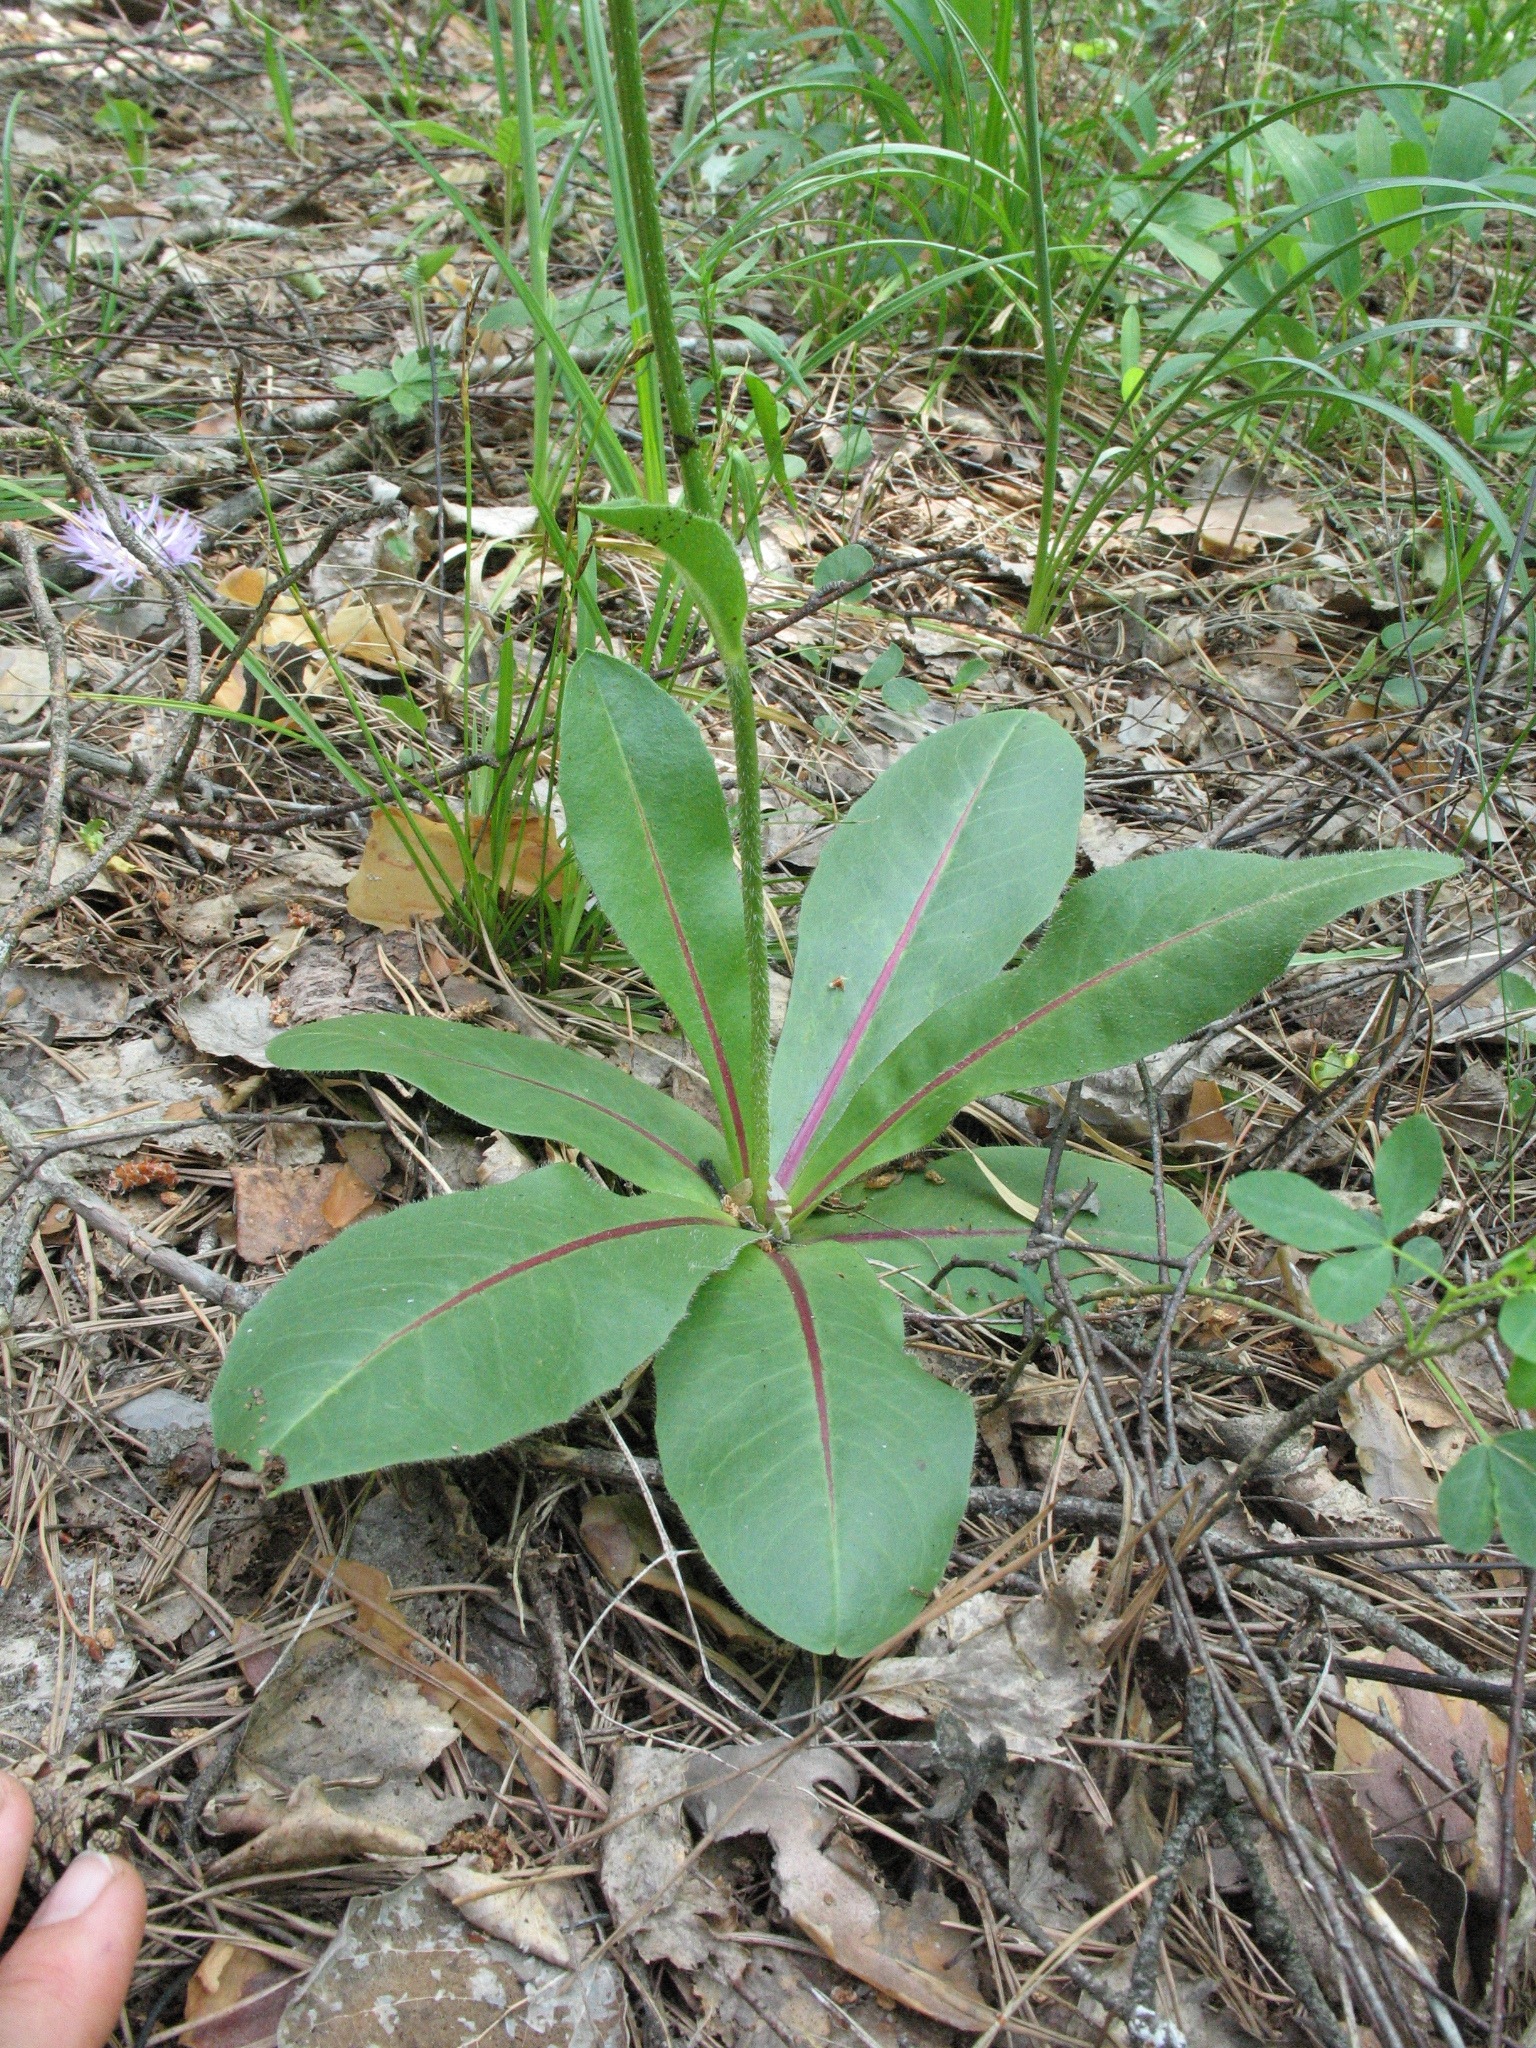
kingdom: Plantae
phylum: Tracheophyta
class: Magnoliopsida
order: Asterales
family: Asteraceae
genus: Trommsdorffia
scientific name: Trommsdorffia maculata
